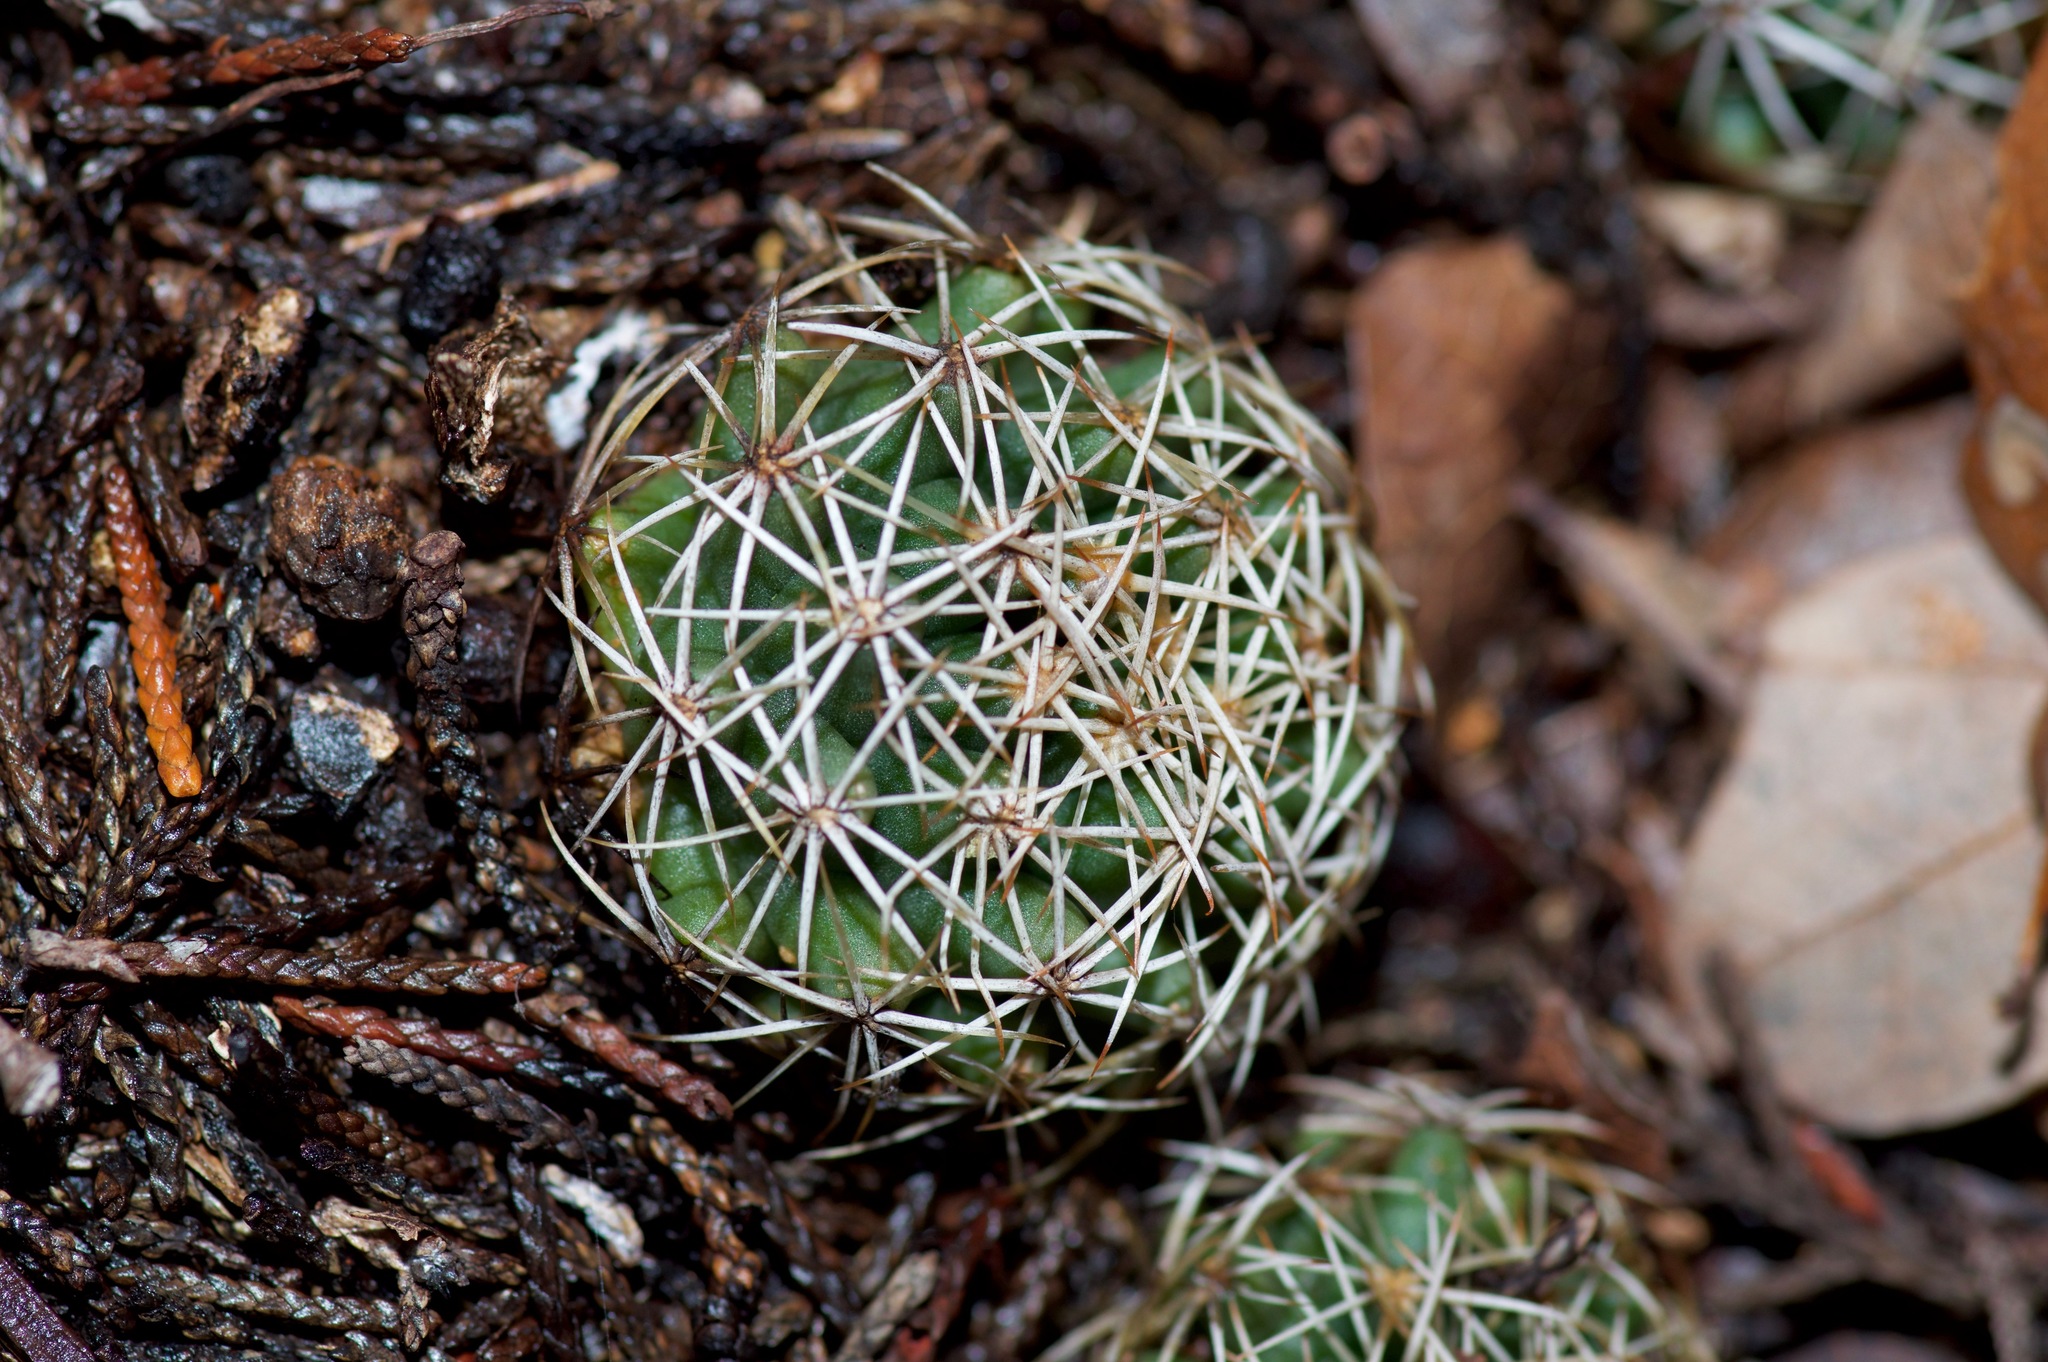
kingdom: Plantae
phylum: Tracheophyta
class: Magnoliopsida
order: Caryophyllales
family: Cactaceae
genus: Coryphantha
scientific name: Coryphantha sulcata
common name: Finger cactus
